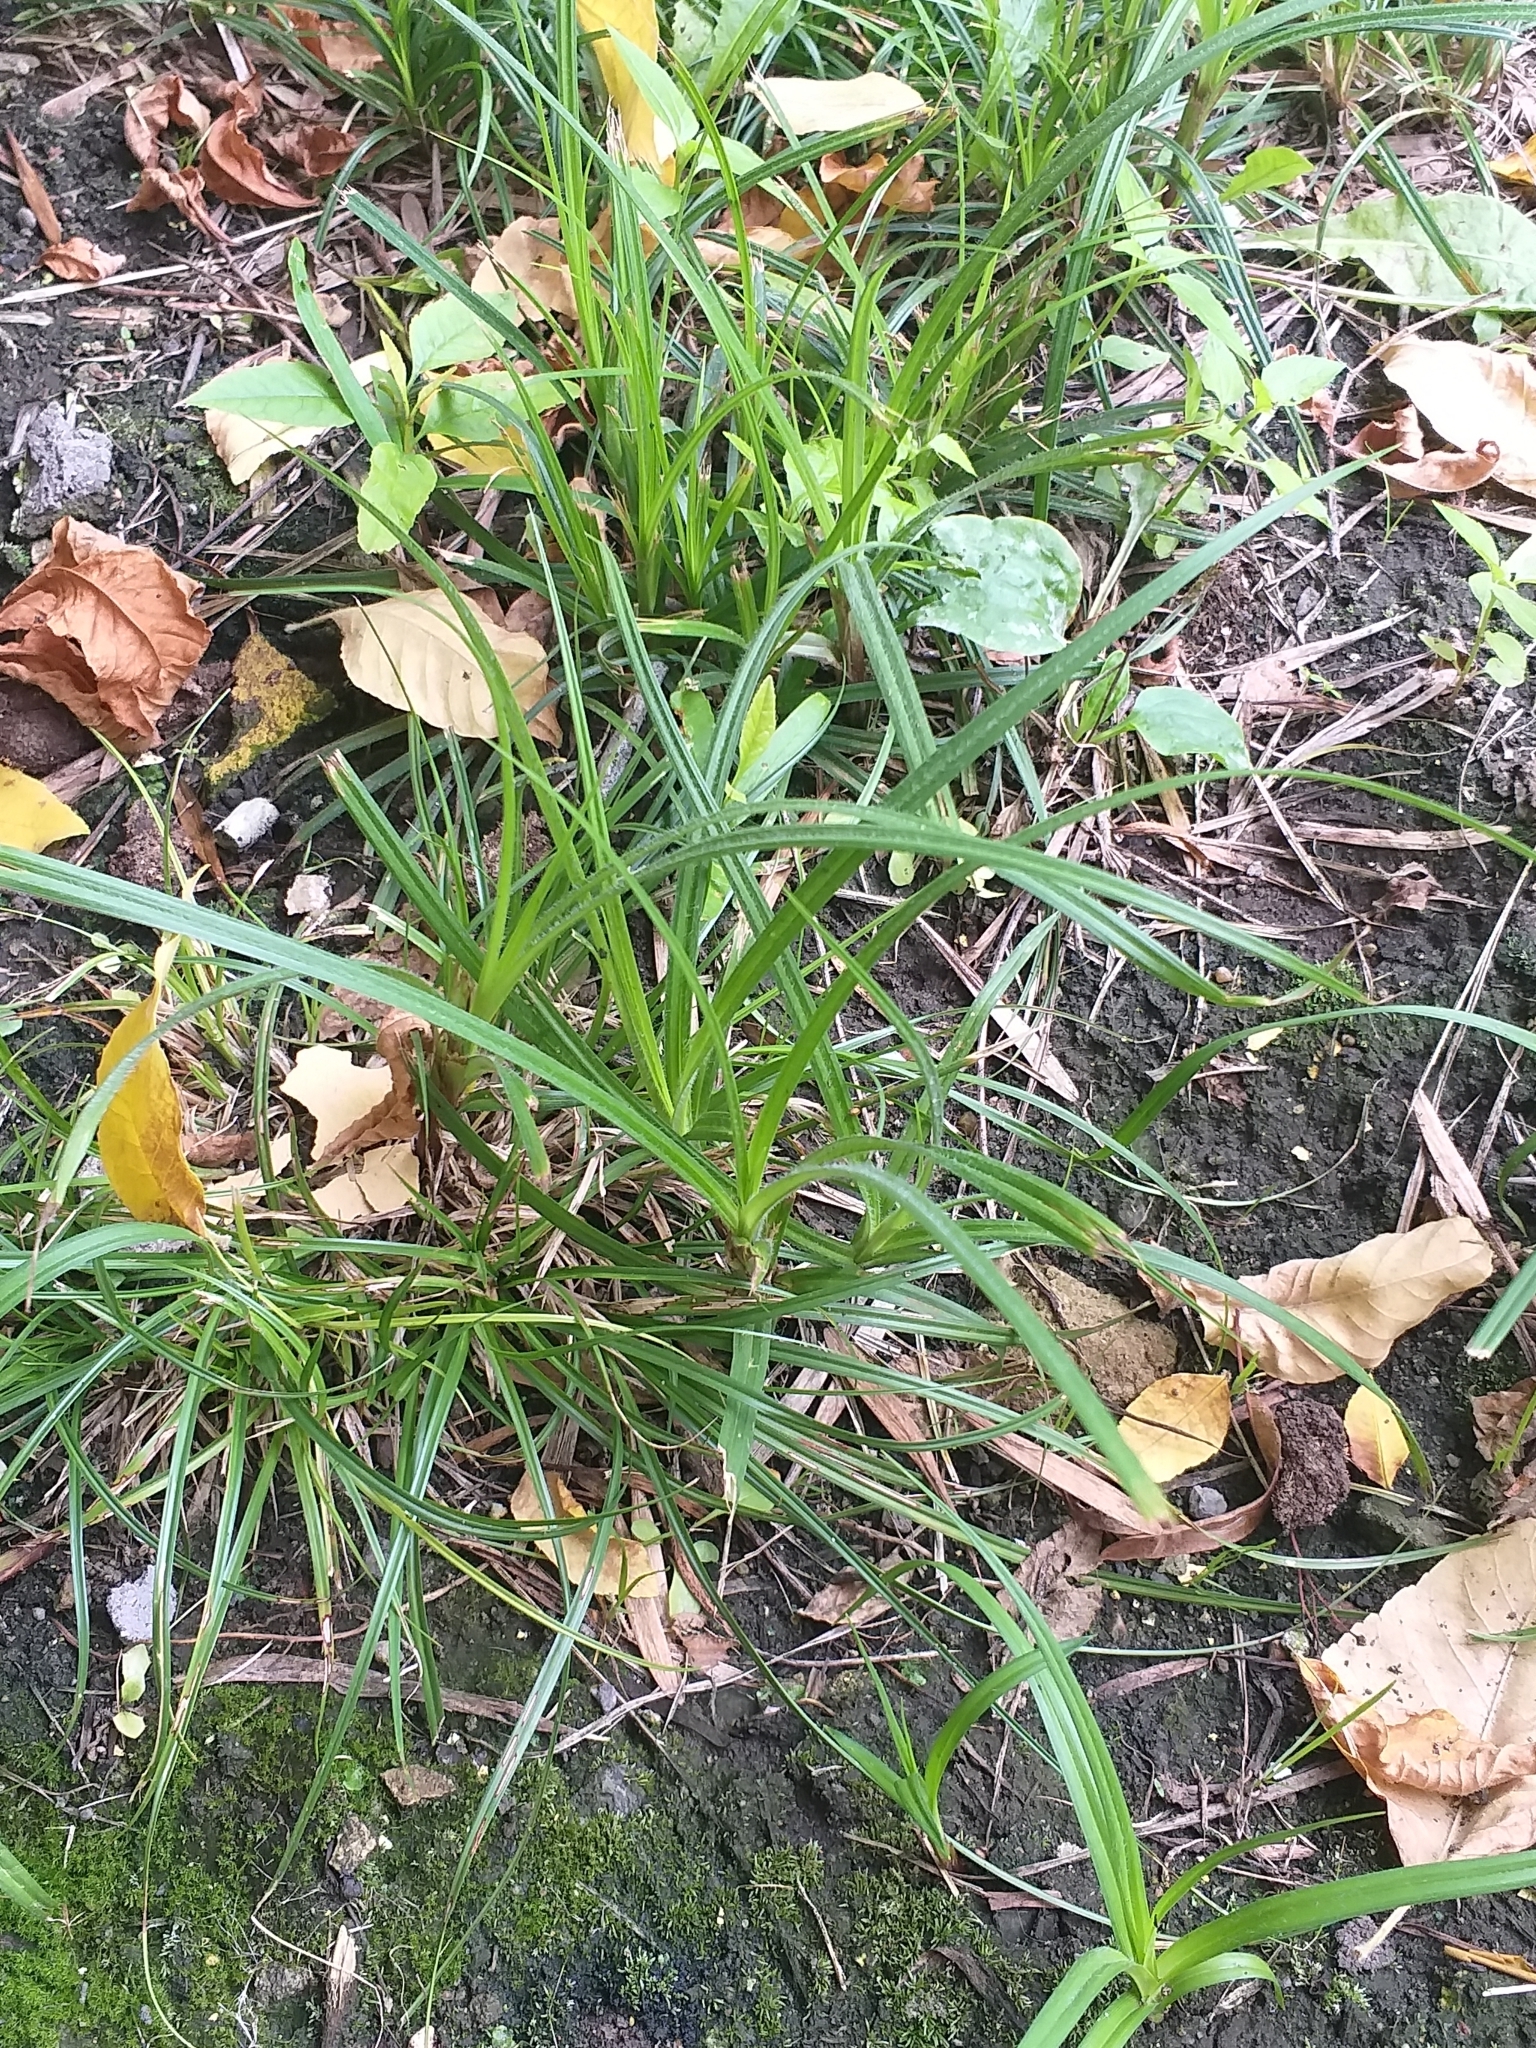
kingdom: Plantae
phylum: Tracheophyta
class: Liliopsida
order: Poales
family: Cyperaceae
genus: Carex
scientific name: Carex hirta
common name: Hairy sedge
